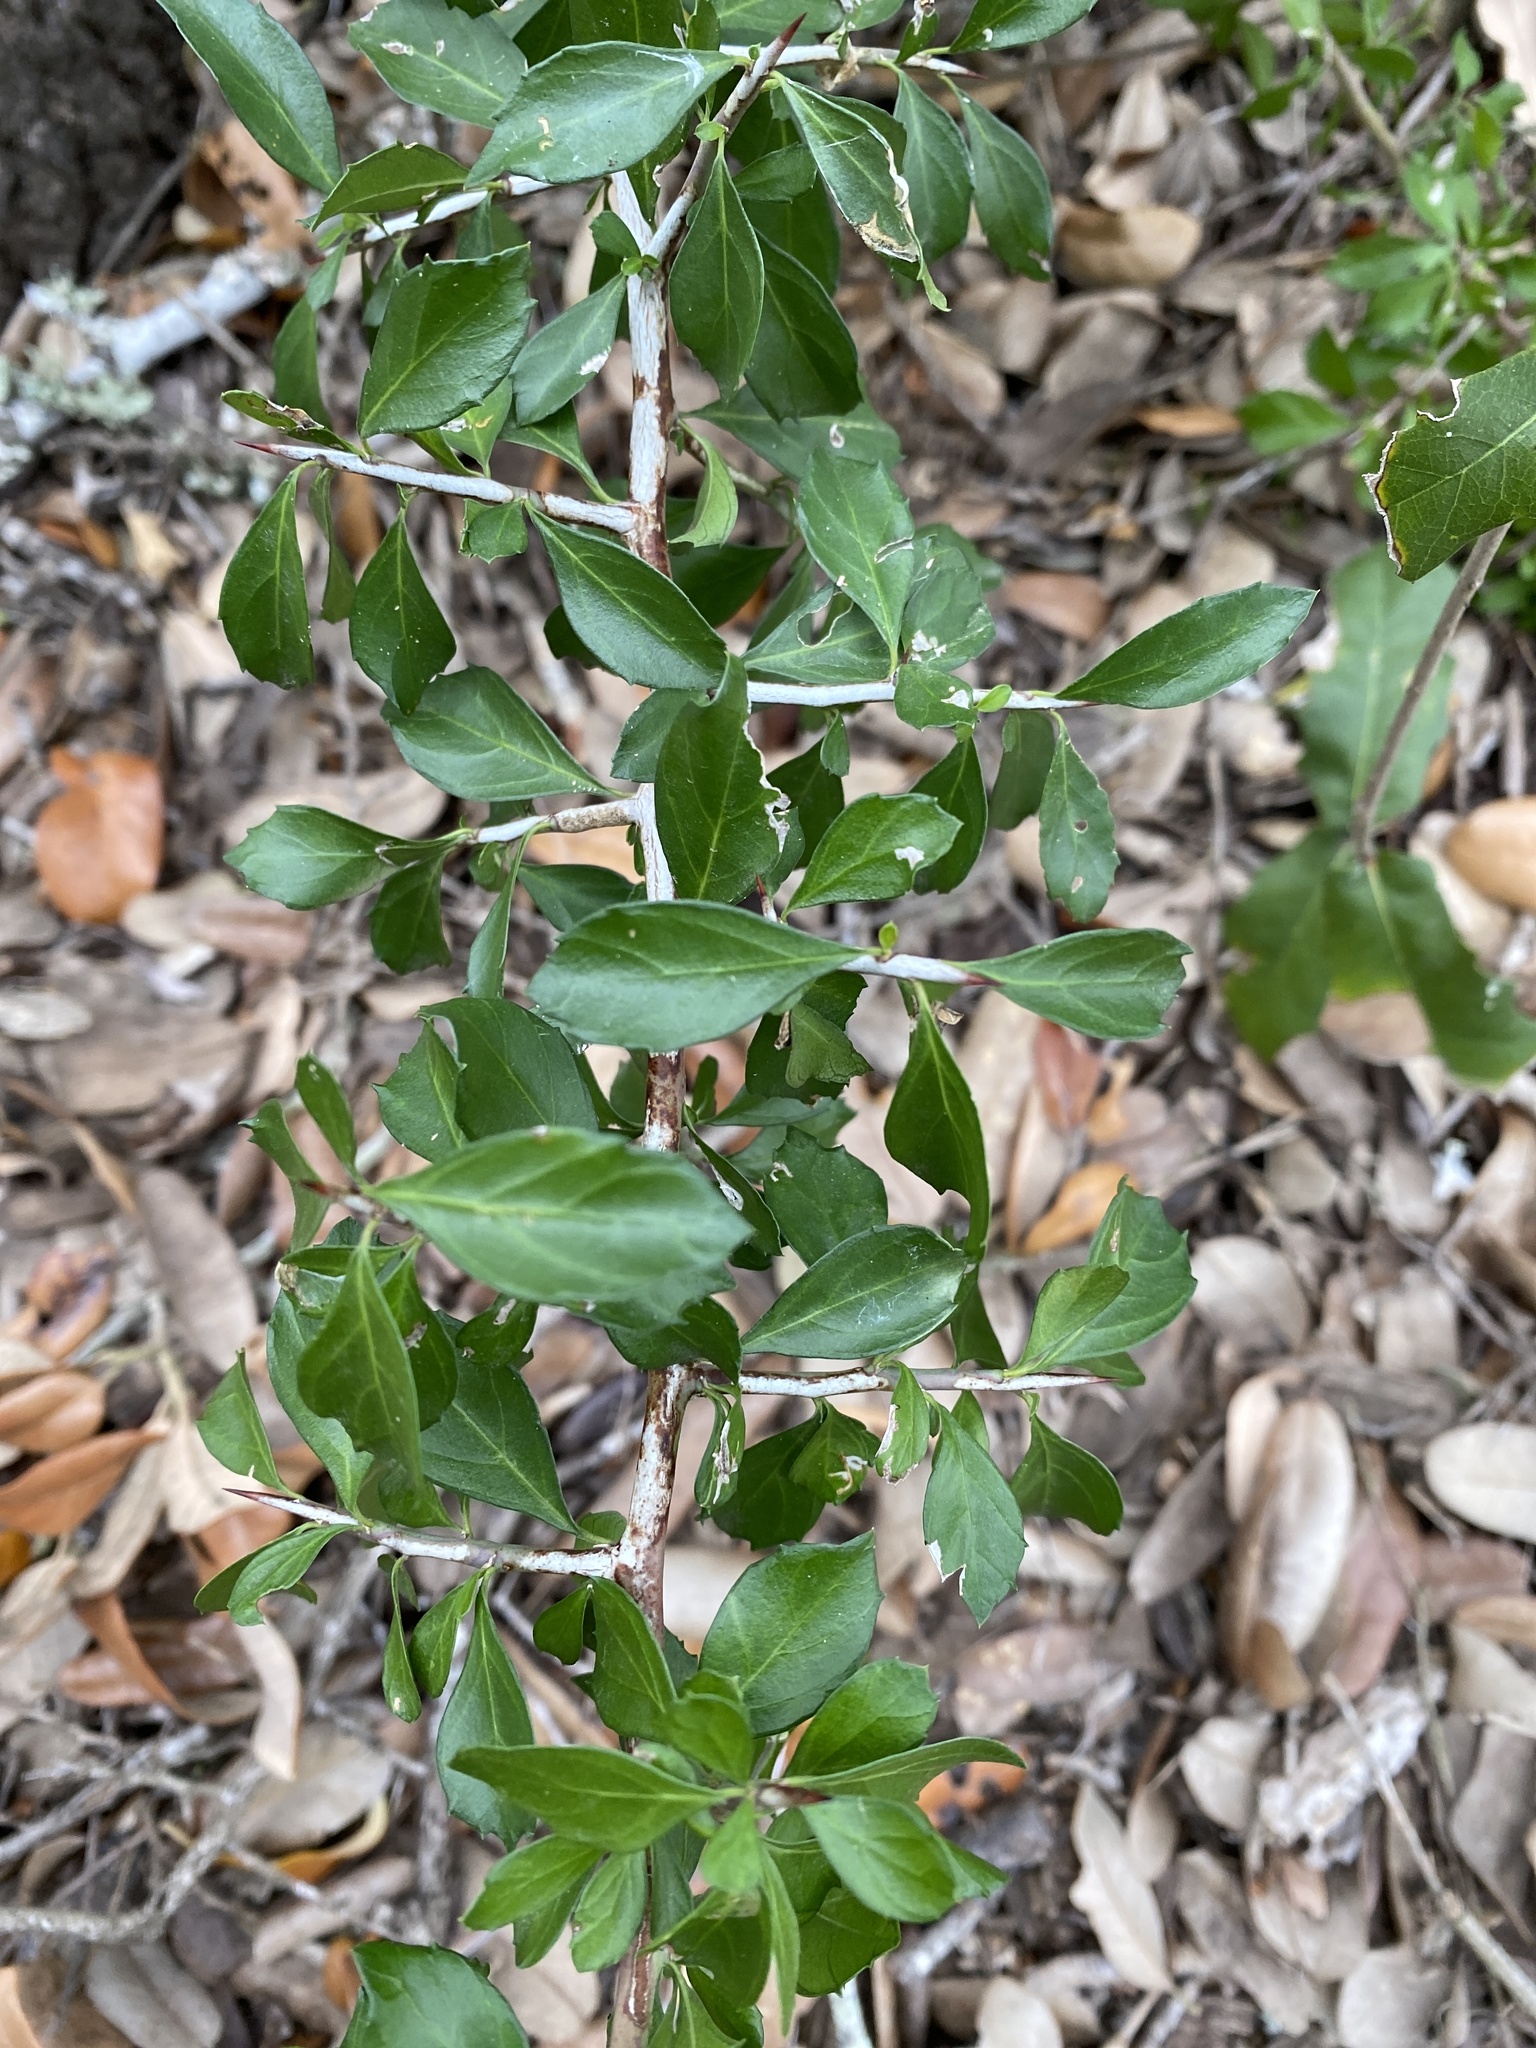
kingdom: Plantae
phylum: Tracheophyta
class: Magnoliopsida
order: Rosales
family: Rhamnaceae
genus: Condalia
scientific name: Condalia hookeri
